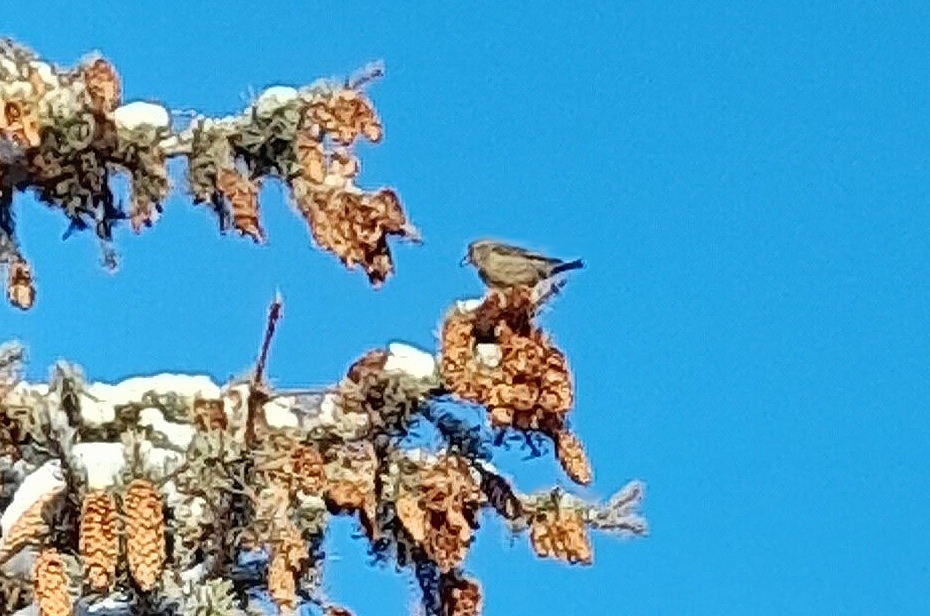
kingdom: Animalia
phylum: Chordata
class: Aves
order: Passeriformes
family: Fringillidae
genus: Loxia
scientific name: Loxia curvirostra
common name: Red crossbill
